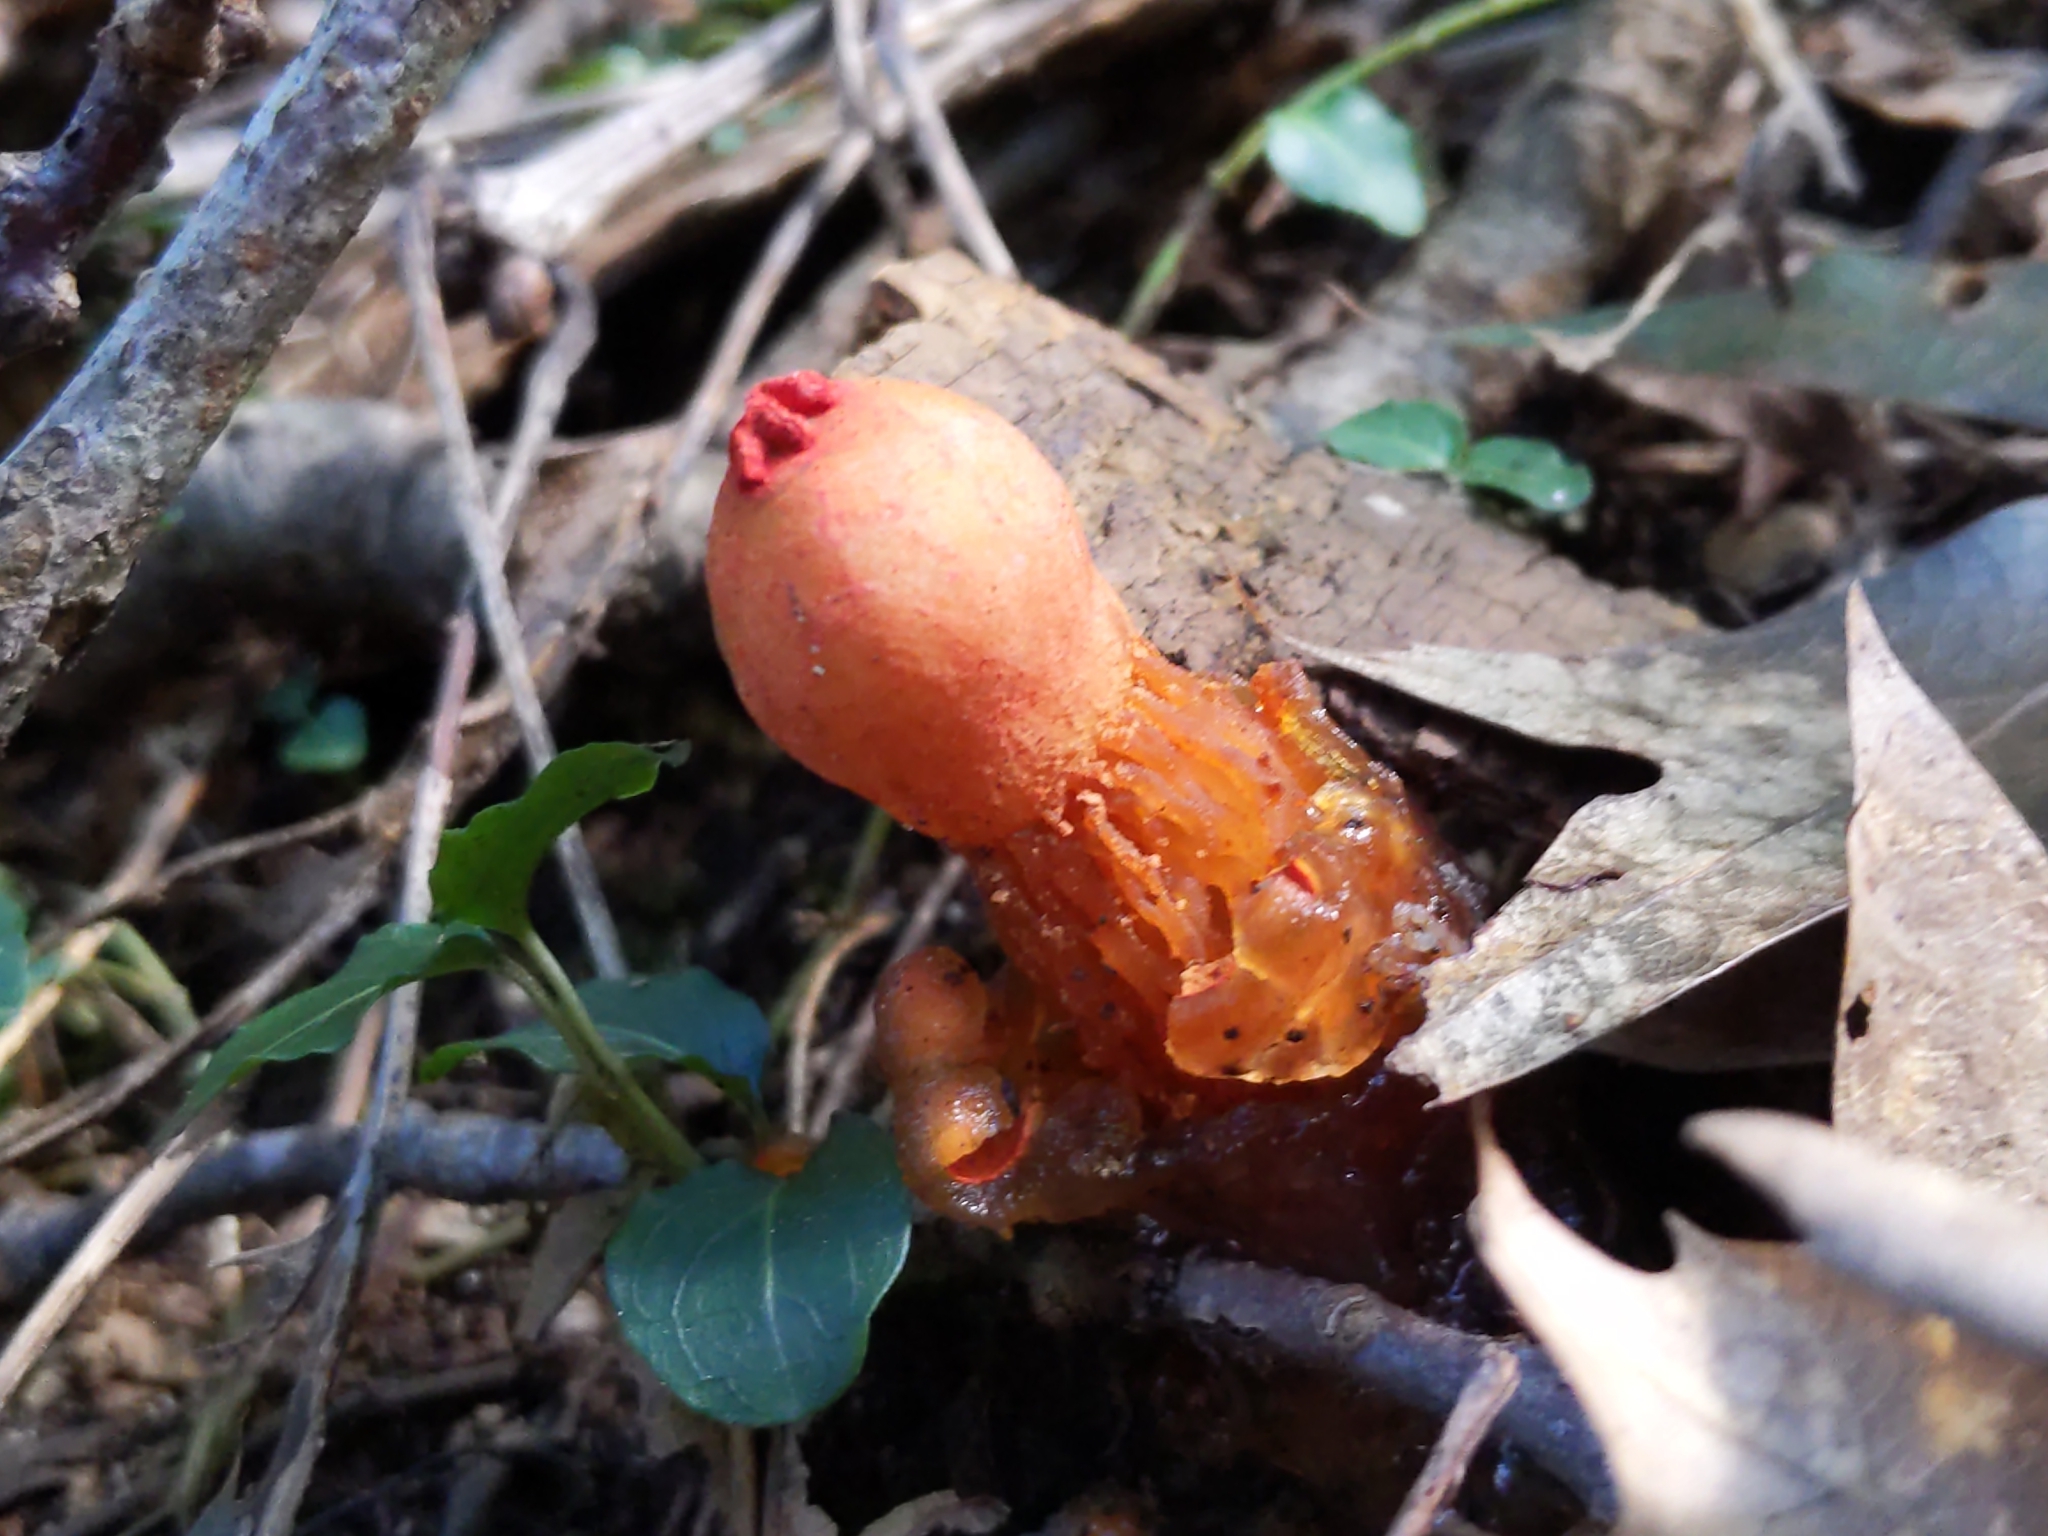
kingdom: Fungi
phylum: Basidiomycota
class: Agaricomycetes
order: Boletales
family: Calostomataceae
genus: Calostoma
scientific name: Calostoma cinnabarinum
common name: Stalked puffball-in-aspic
